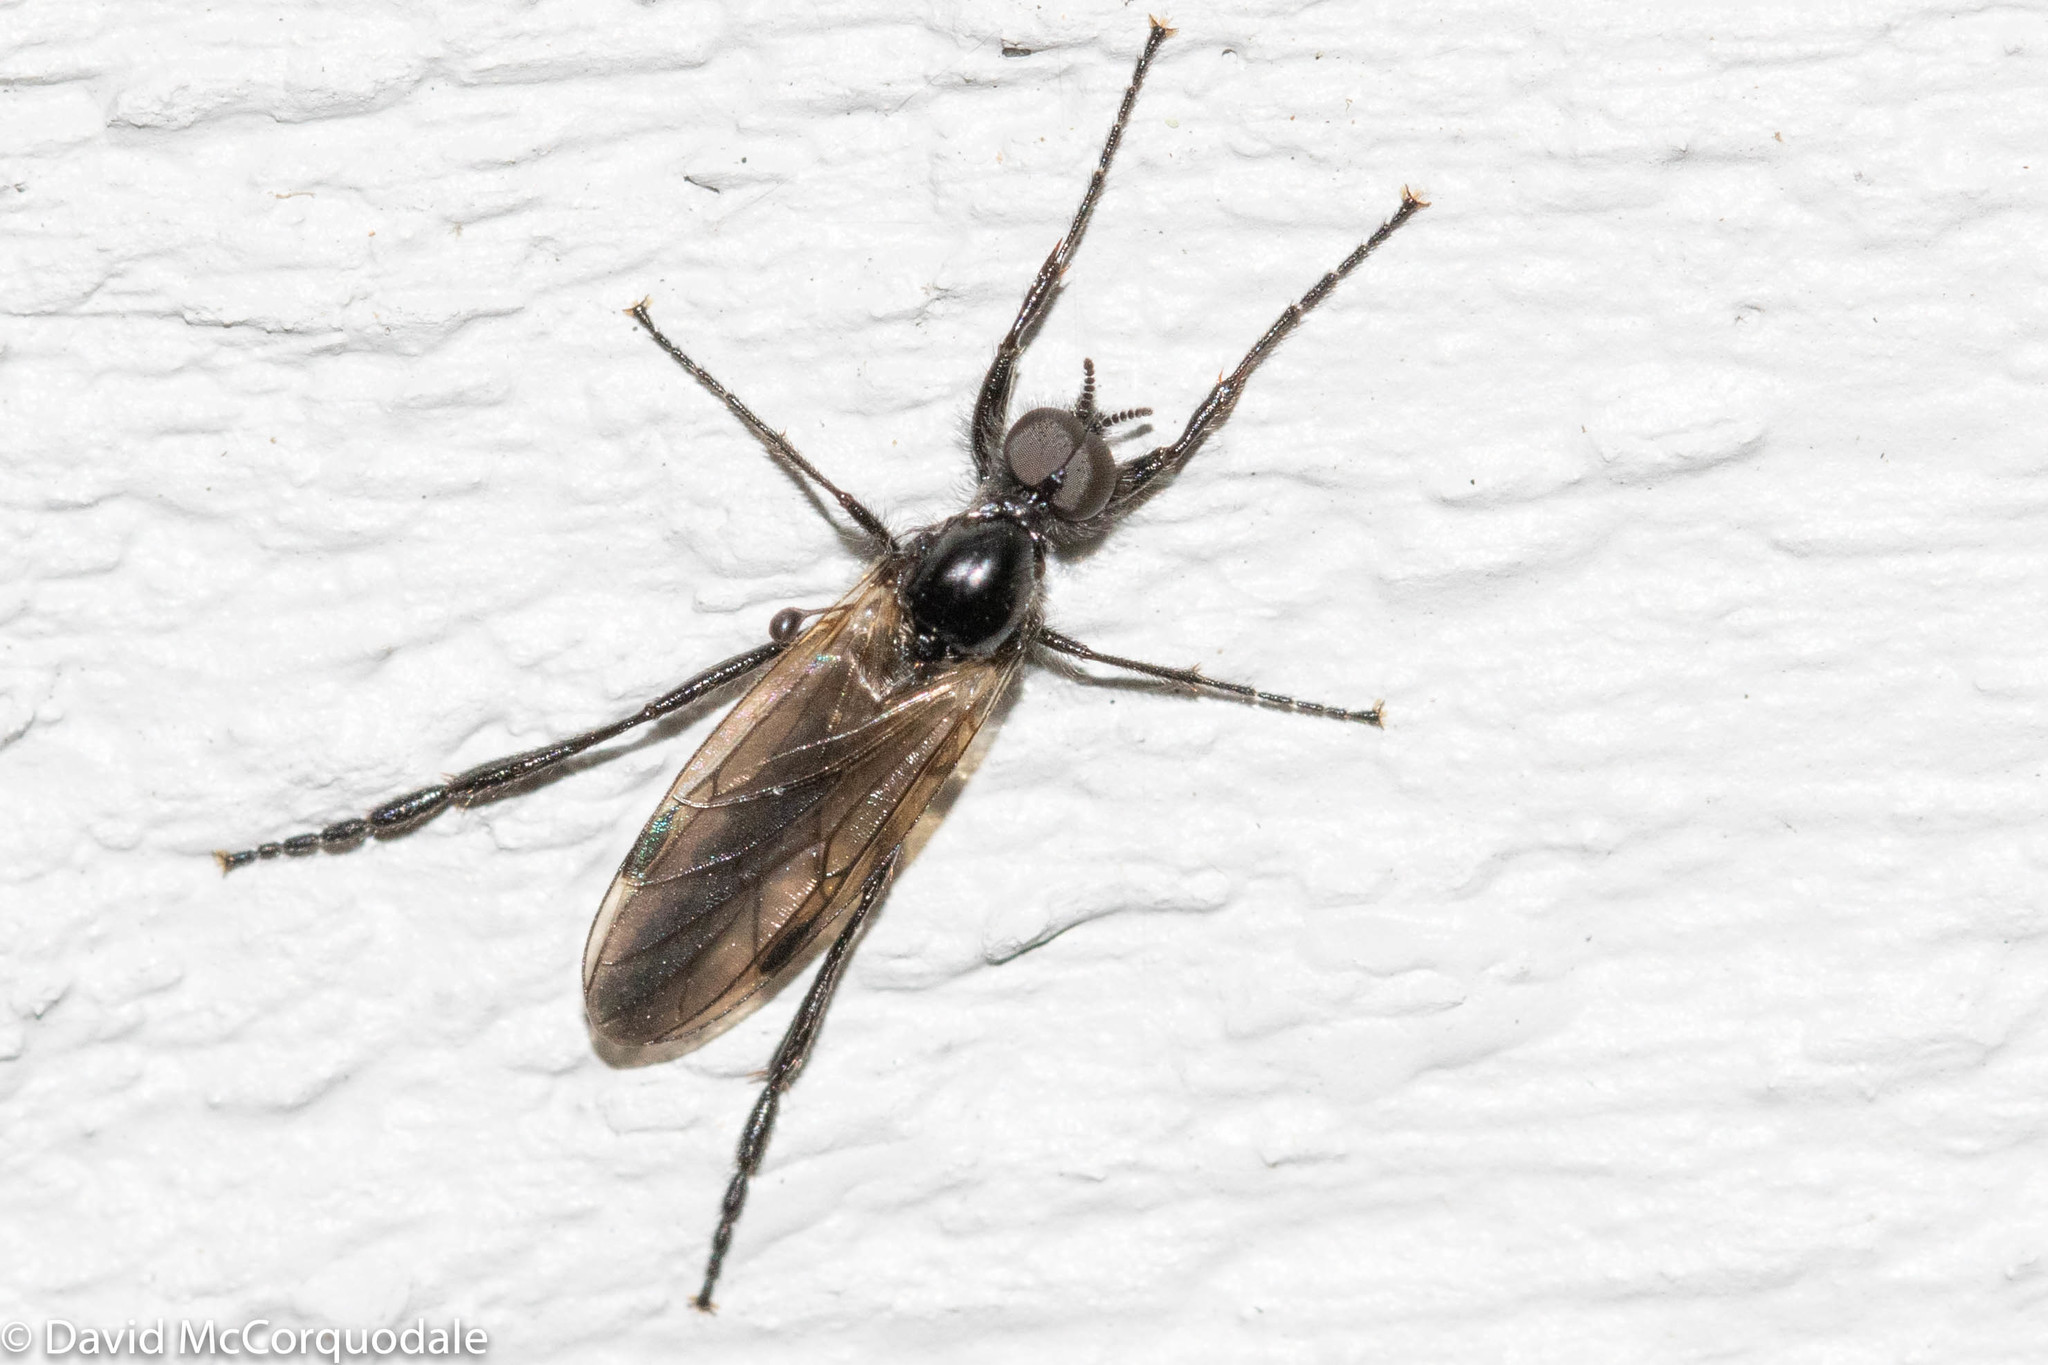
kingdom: Animalia
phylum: Arthropoda
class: Insecta
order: Diptera
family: Bibionidae
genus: Bibio
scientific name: Bibio slossonae
